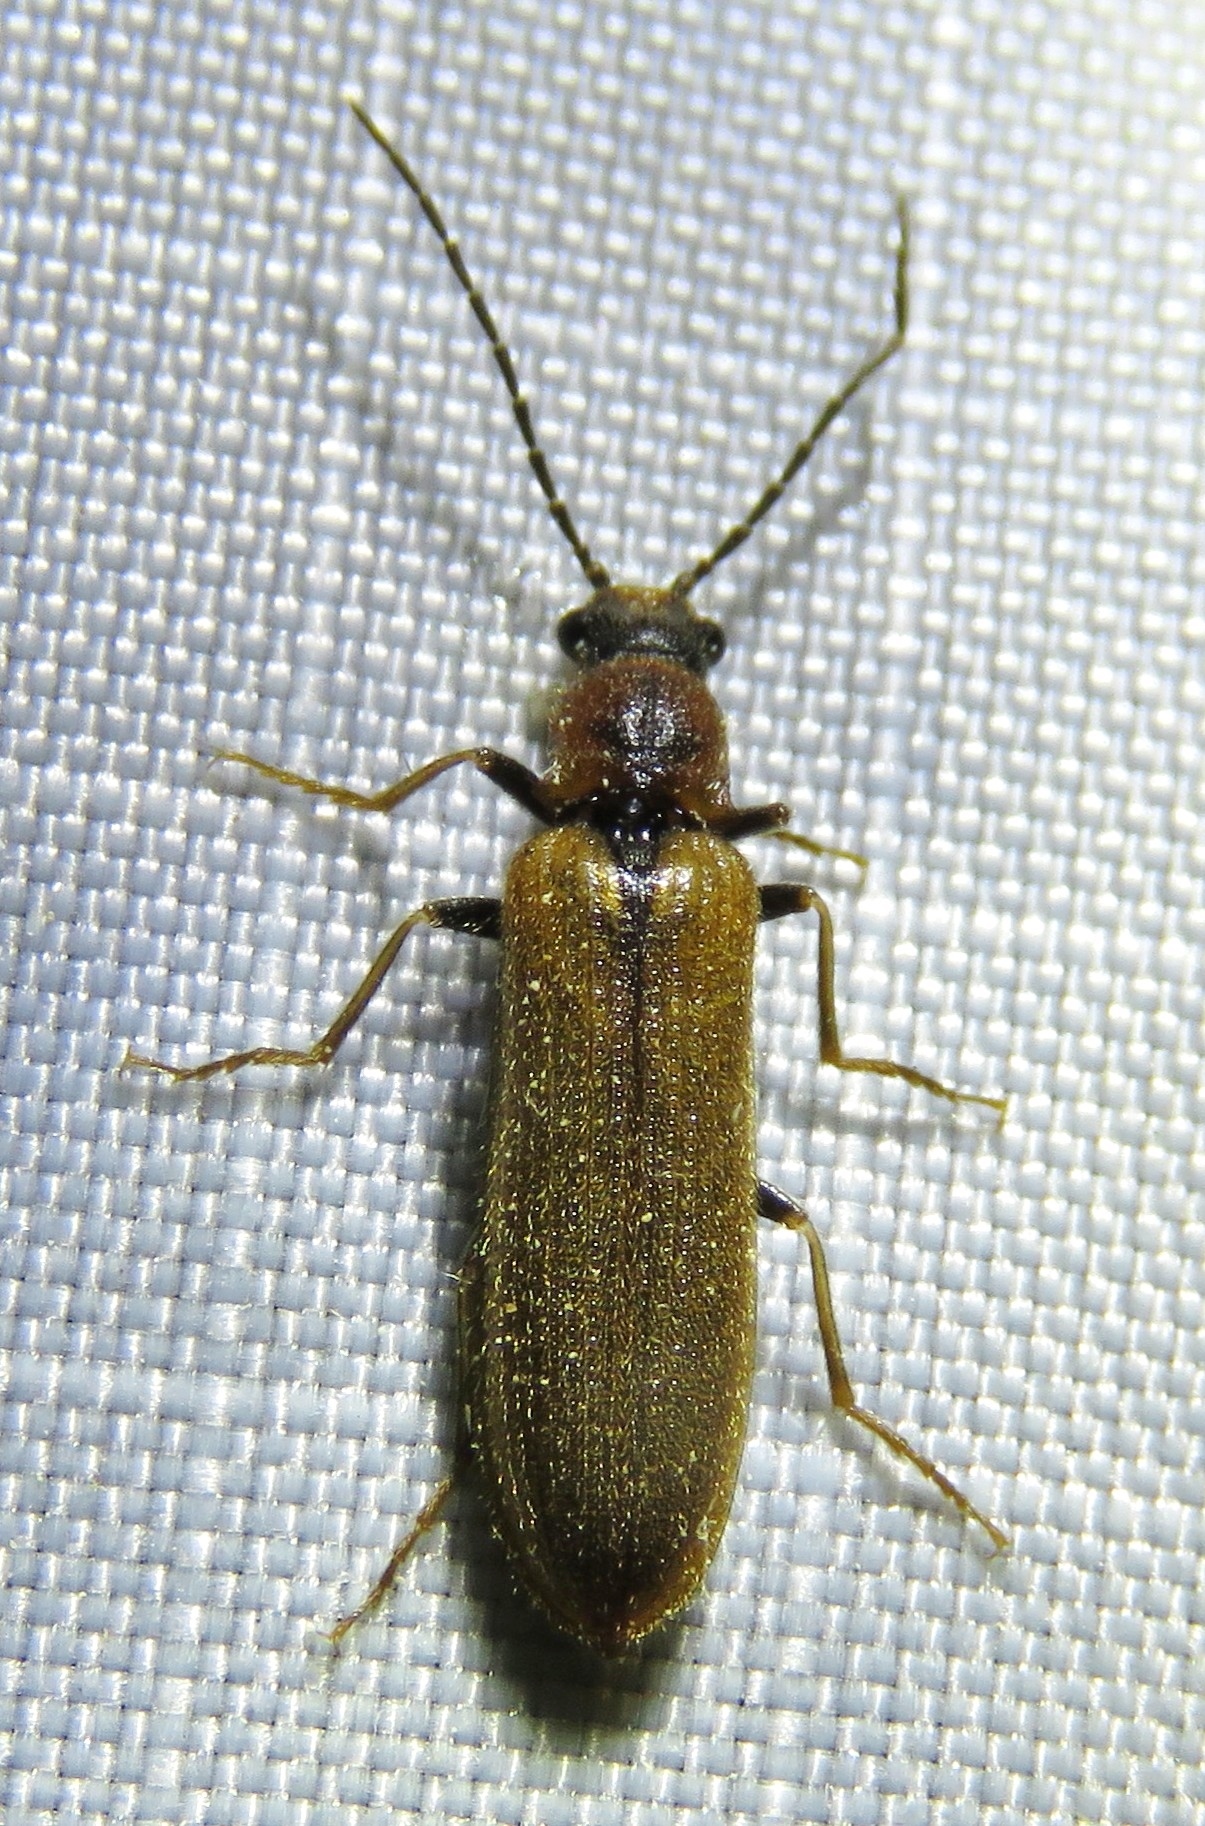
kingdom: Animalia
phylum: Arthropoda
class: Insecta
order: Coleoptera
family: Elateridae
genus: Denticollis
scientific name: Denticollis linearis
